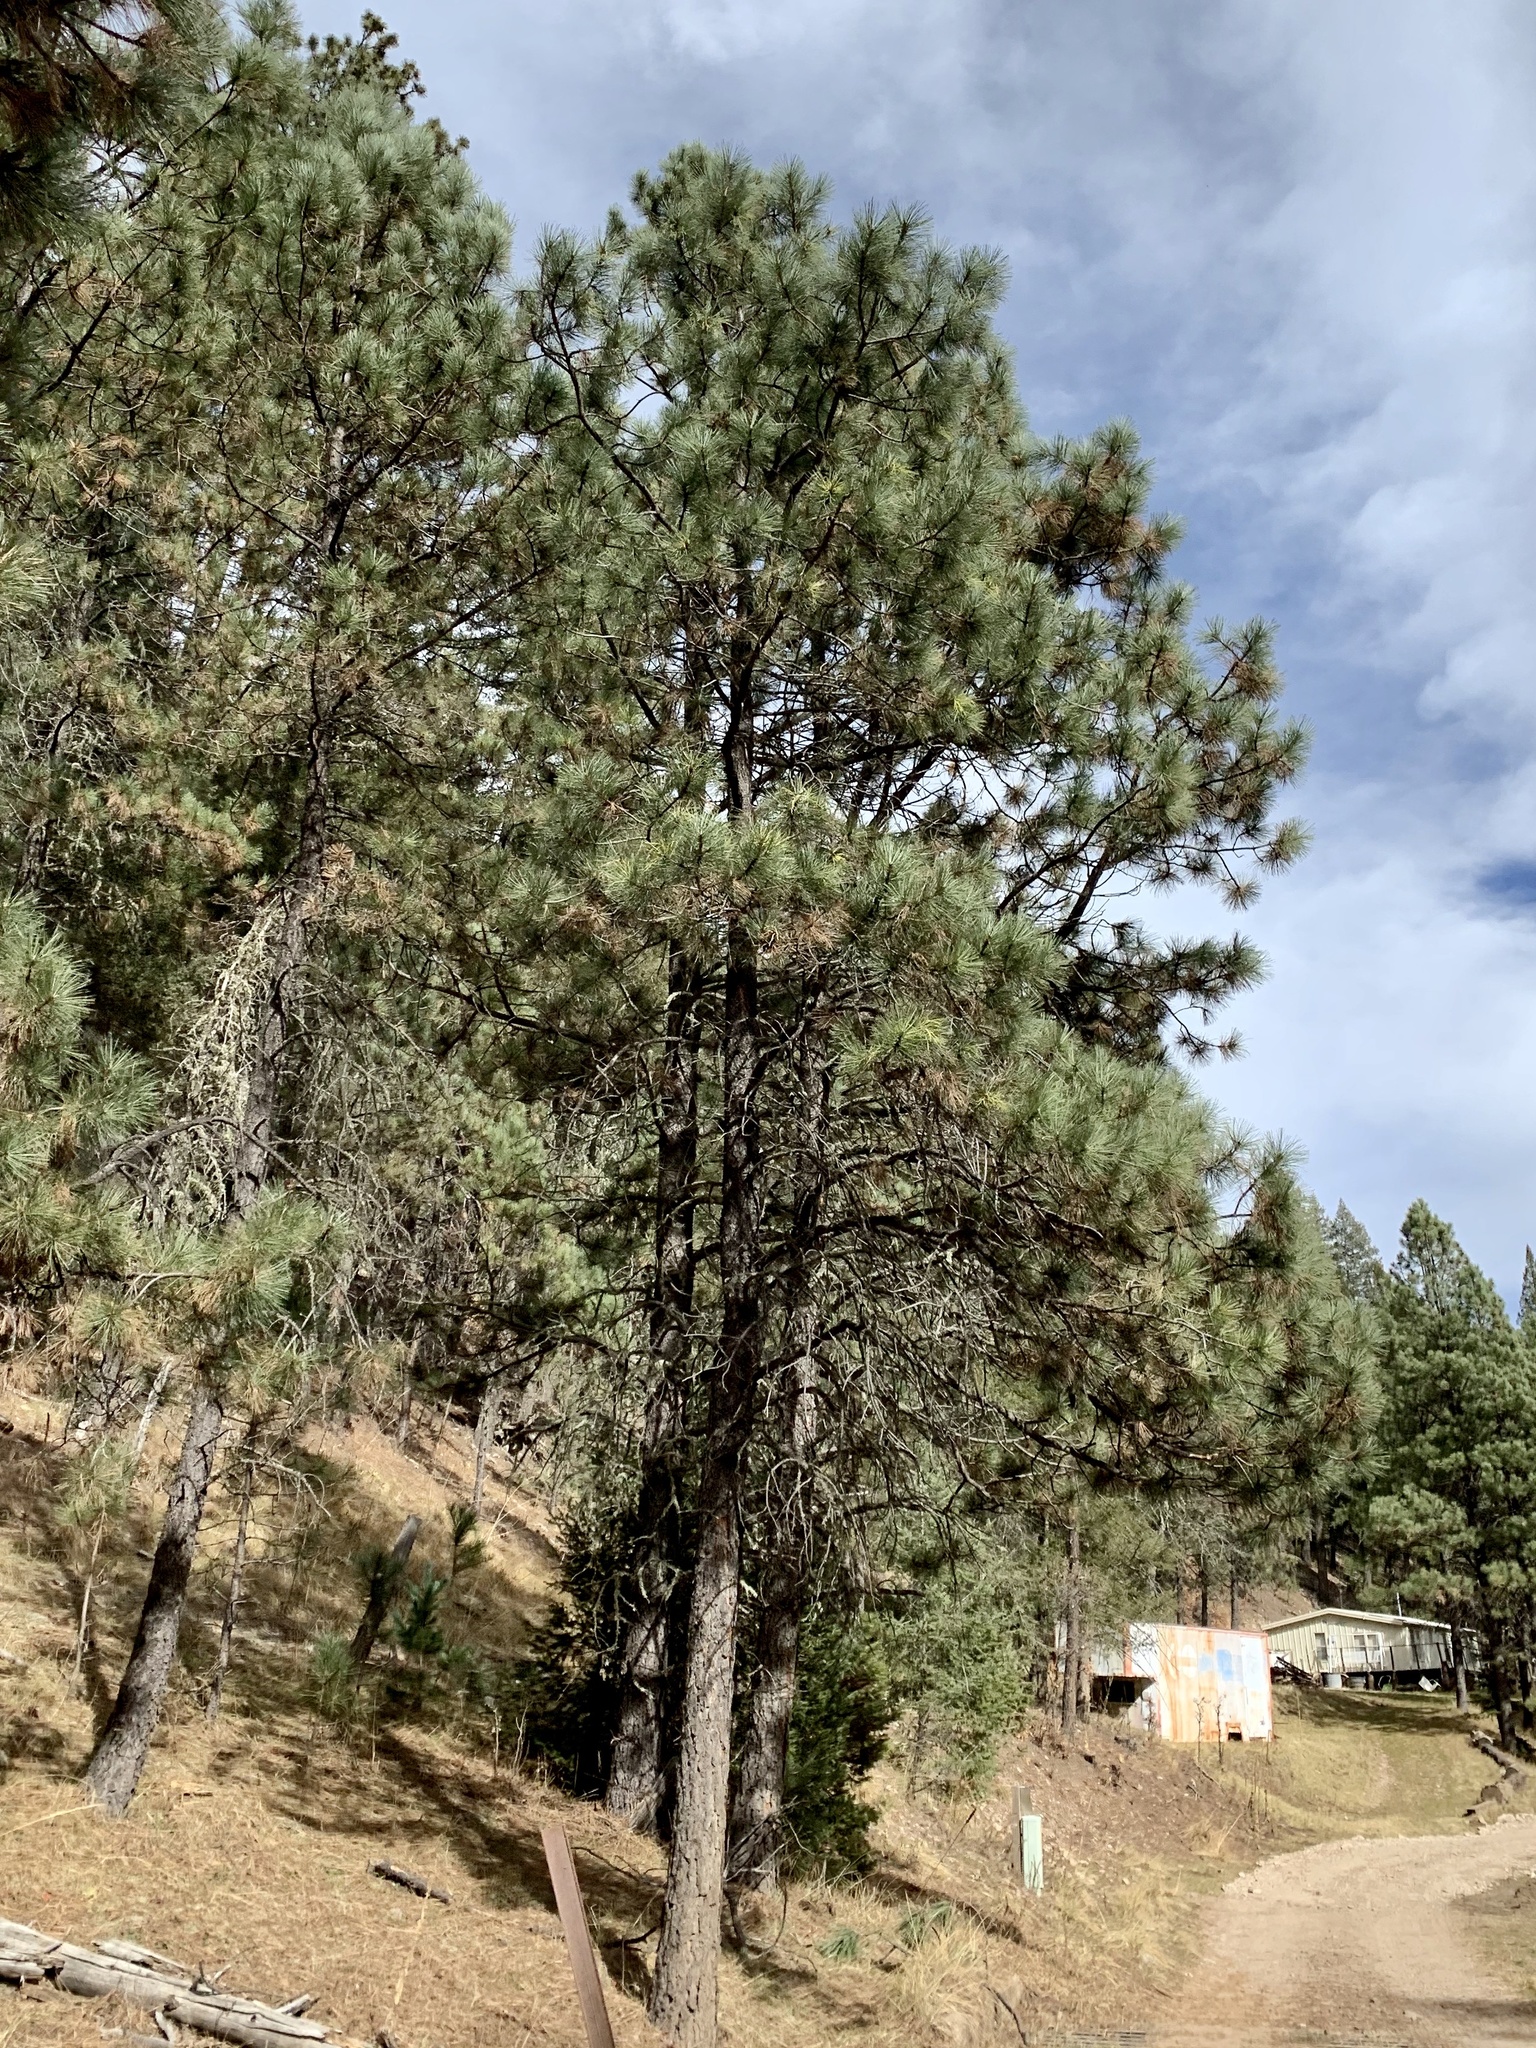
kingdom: Plantae
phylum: Tracheophyta
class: Pinopsida
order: Pinales
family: Pinaceae
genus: Pinus
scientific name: Pinus ponderosa
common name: Western yellow-pine
